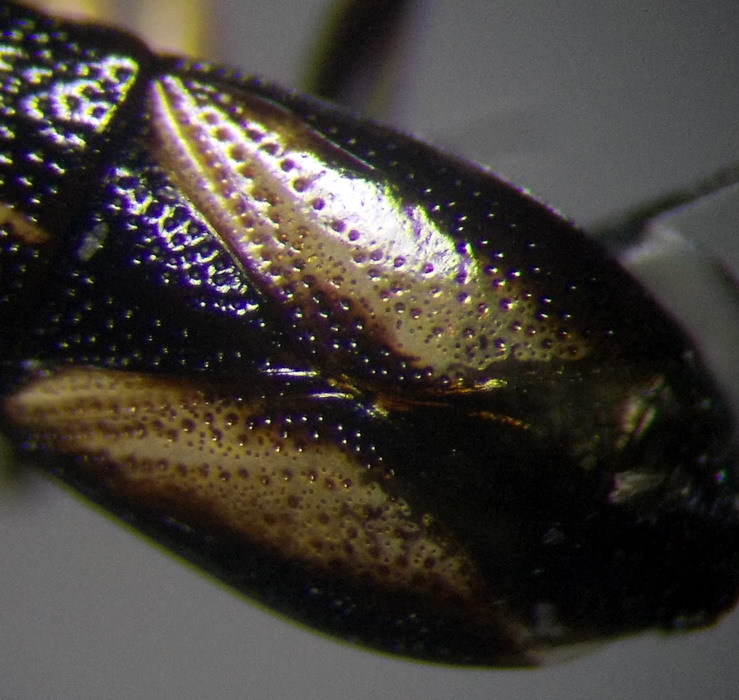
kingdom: Animalia
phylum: Arthropoda
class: Insecta
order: Hemiptera
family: Geocoridae
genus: Geocoris
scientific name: Geocoris ater
